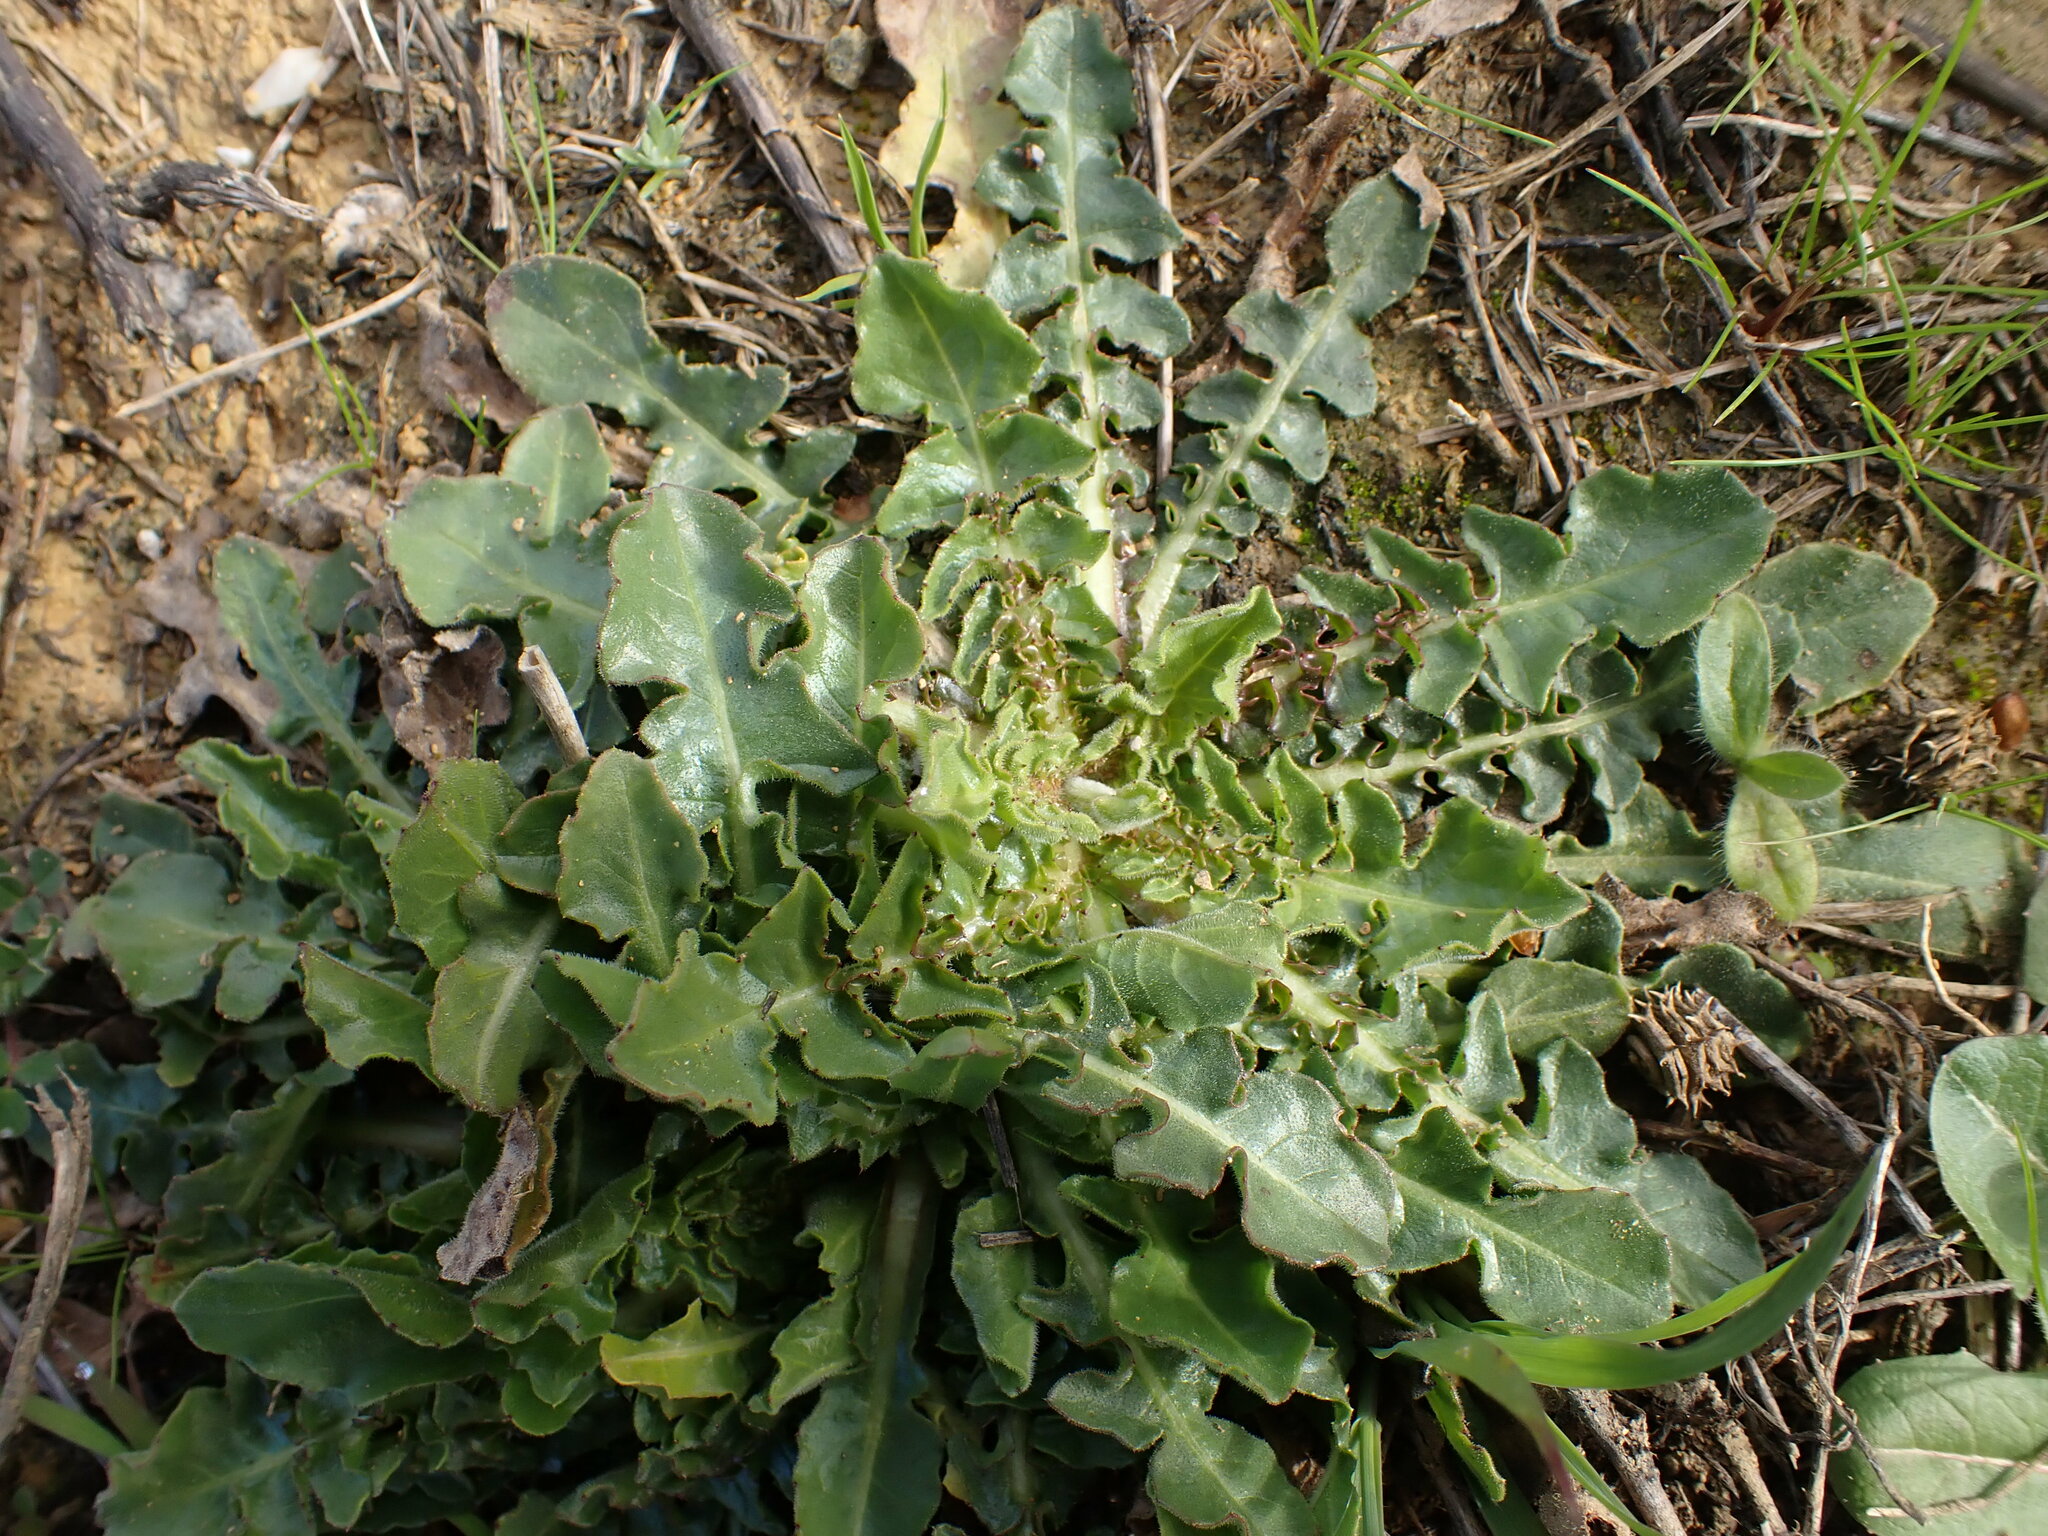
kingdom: Plantae
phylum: Tracheophyta
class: Magnoliopsida
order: Asterales
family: Asteraceae
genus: Urospermum
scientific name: Urospermum dalechampii
